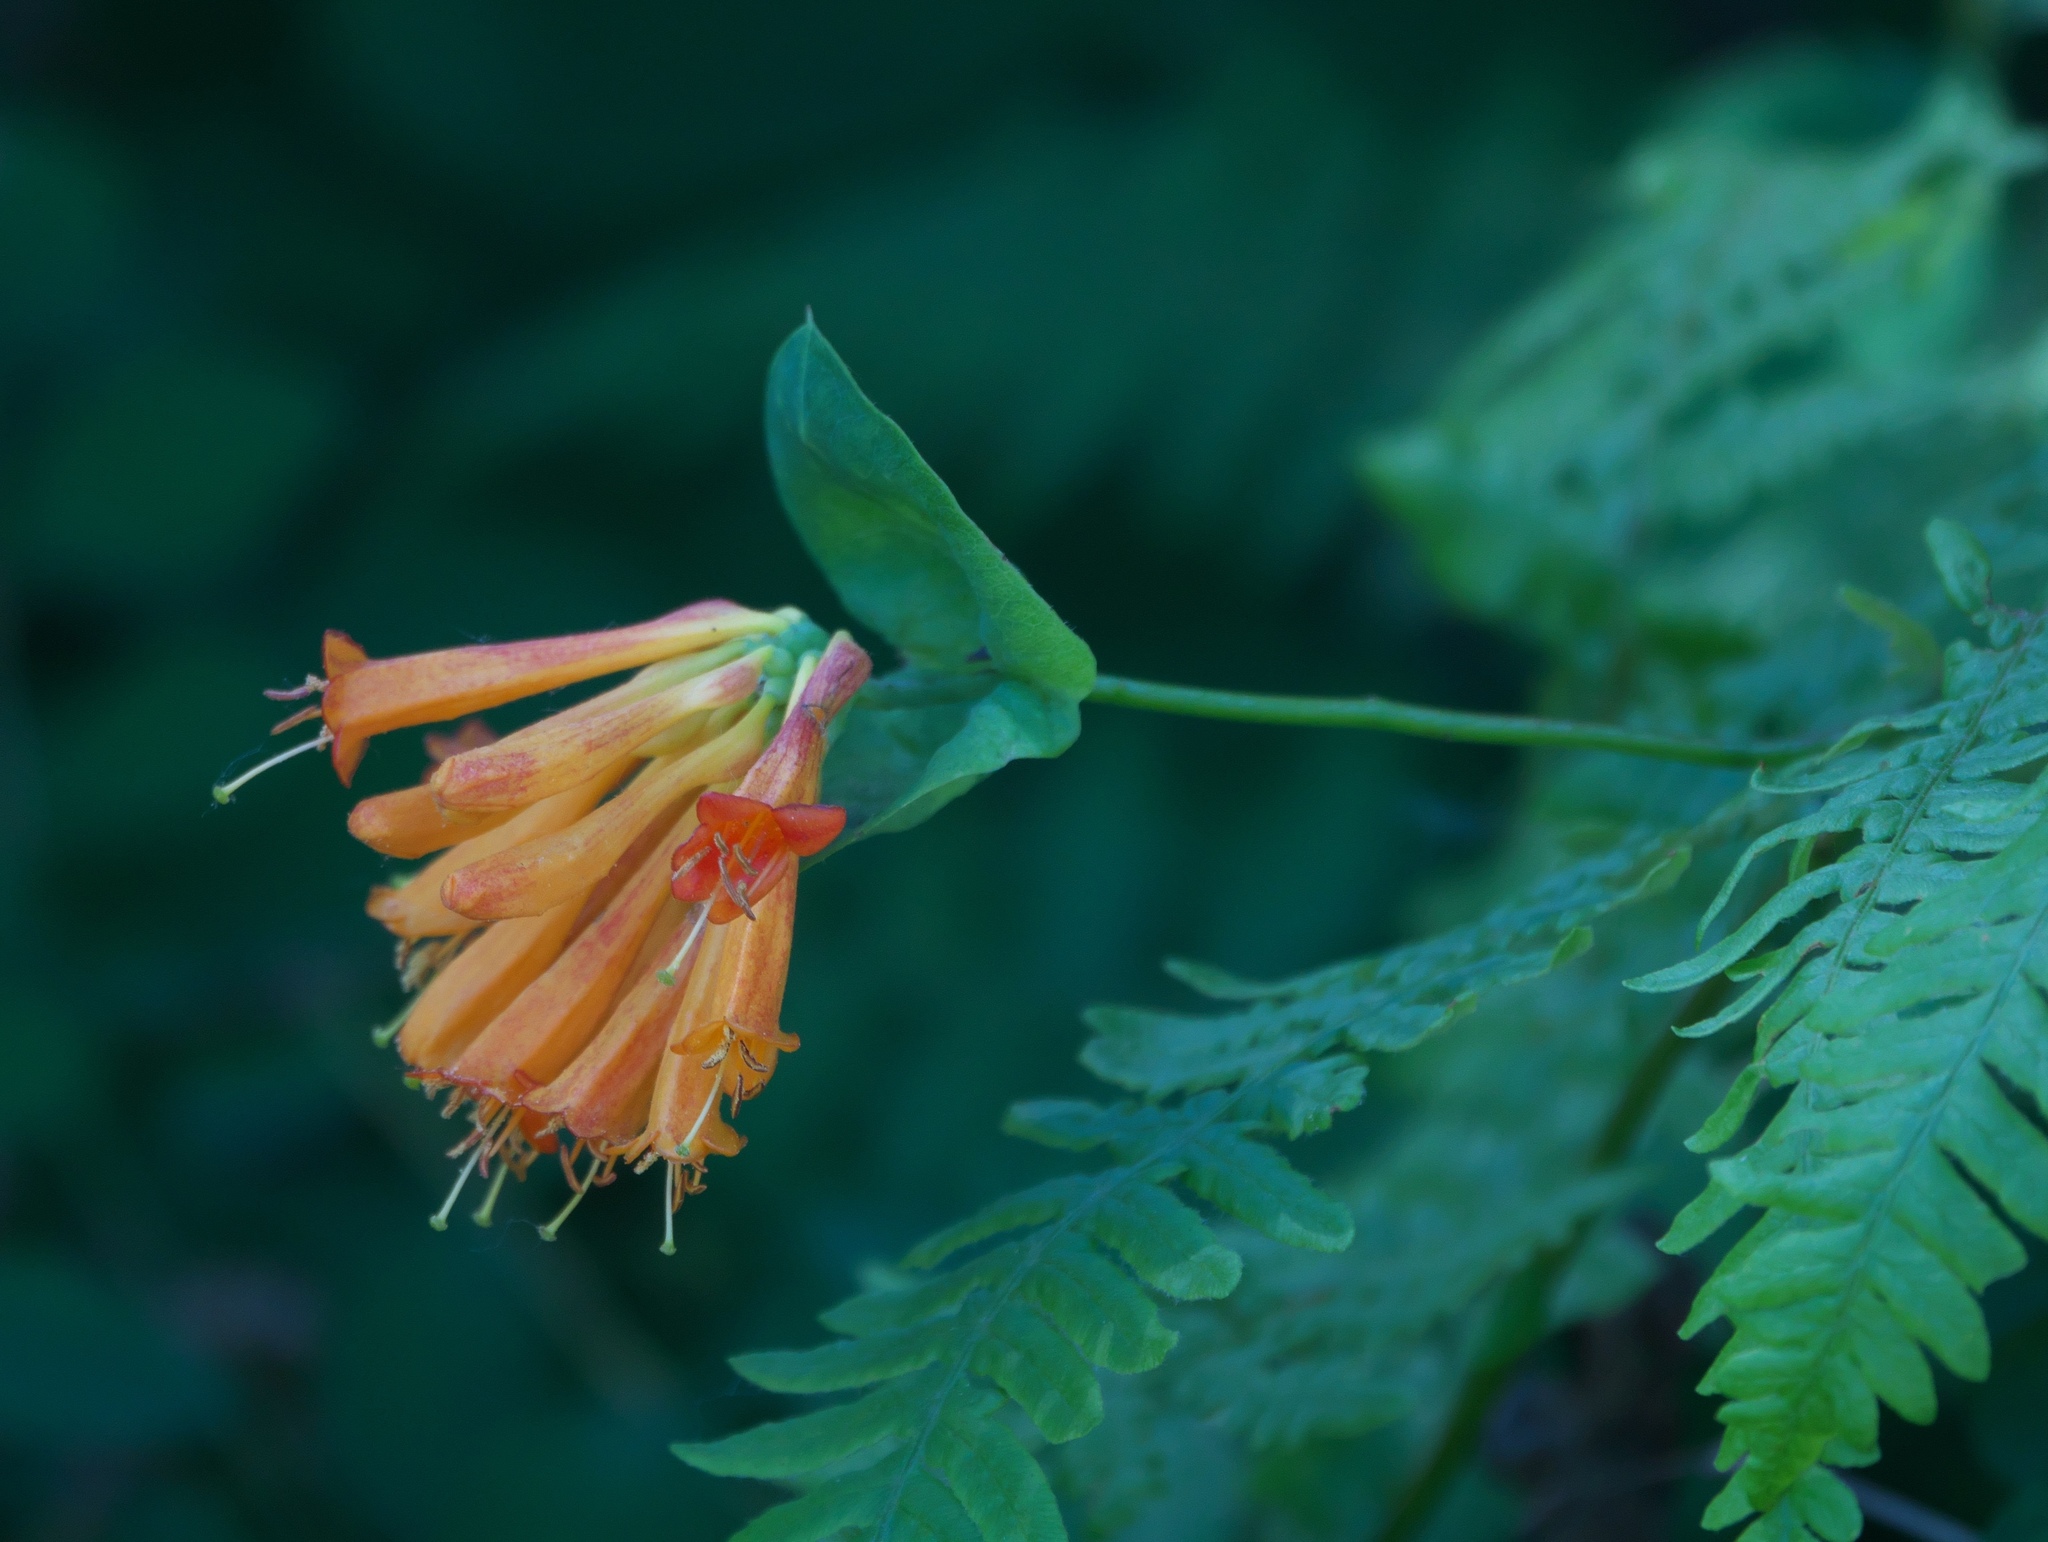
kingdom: Plantae
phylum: Tracheophyta
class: Magnoliopsida
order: Dipsacales
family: Caprifoliaceae
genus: Lonicera
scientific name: Lonicera ciliosa
